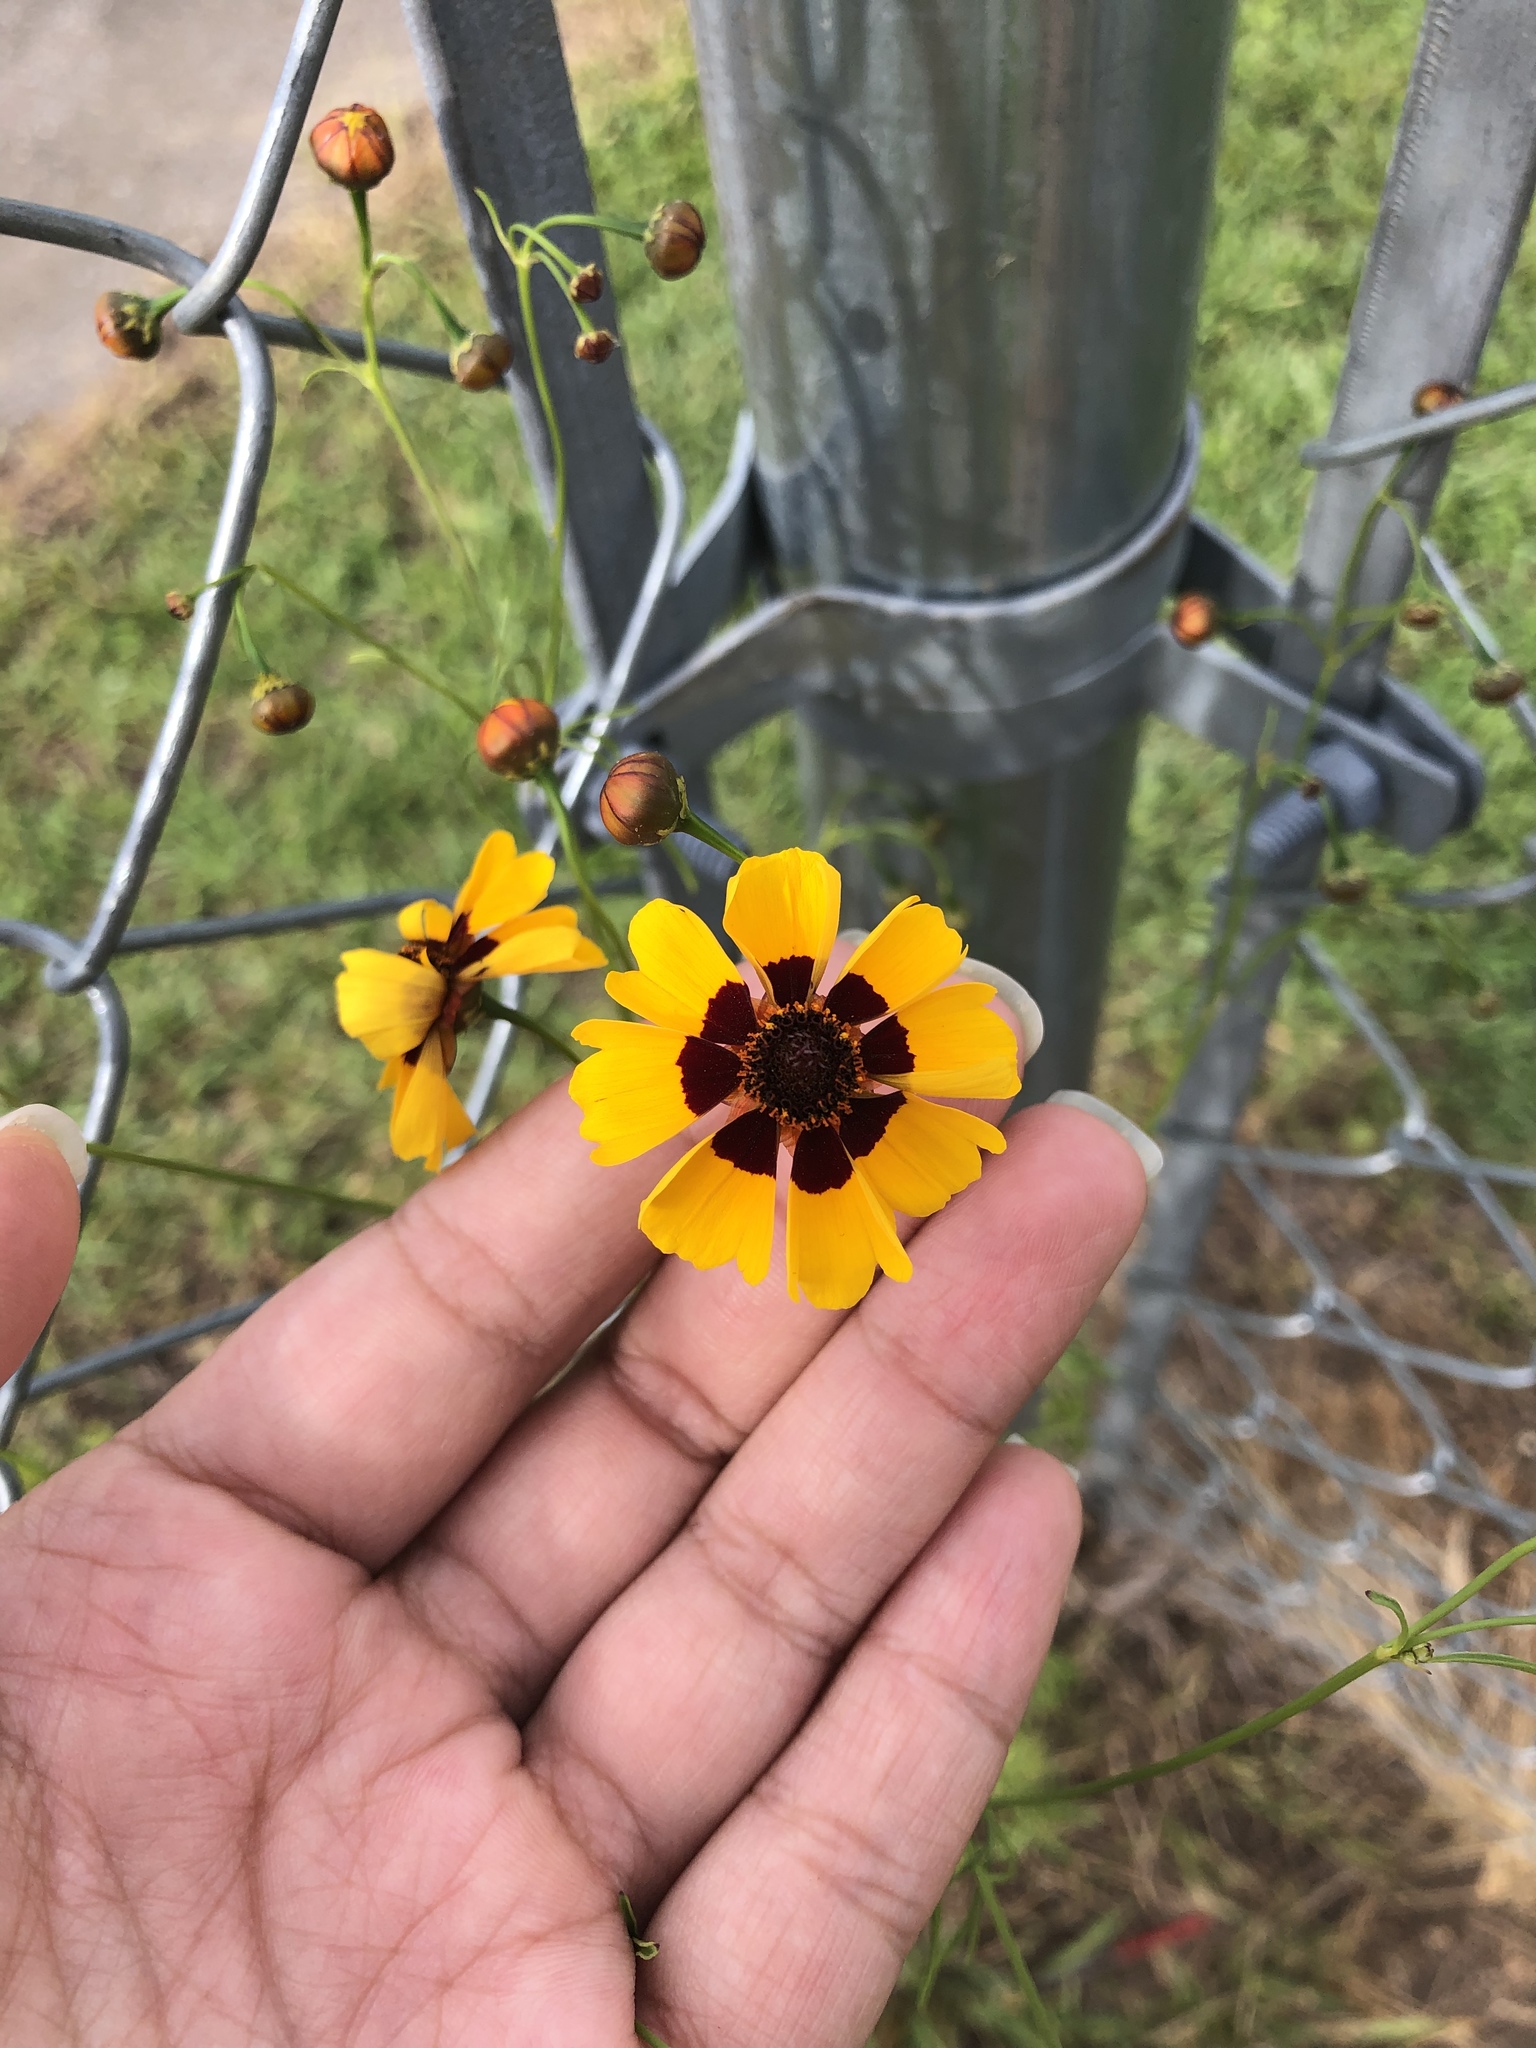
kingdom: Plantae
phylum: Tracheophyta
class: Magnoliopsida
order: Asterales
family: Asteraceae
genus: Coreopsis
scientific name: Coreopsis tinctoria
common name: Garden tickseed
